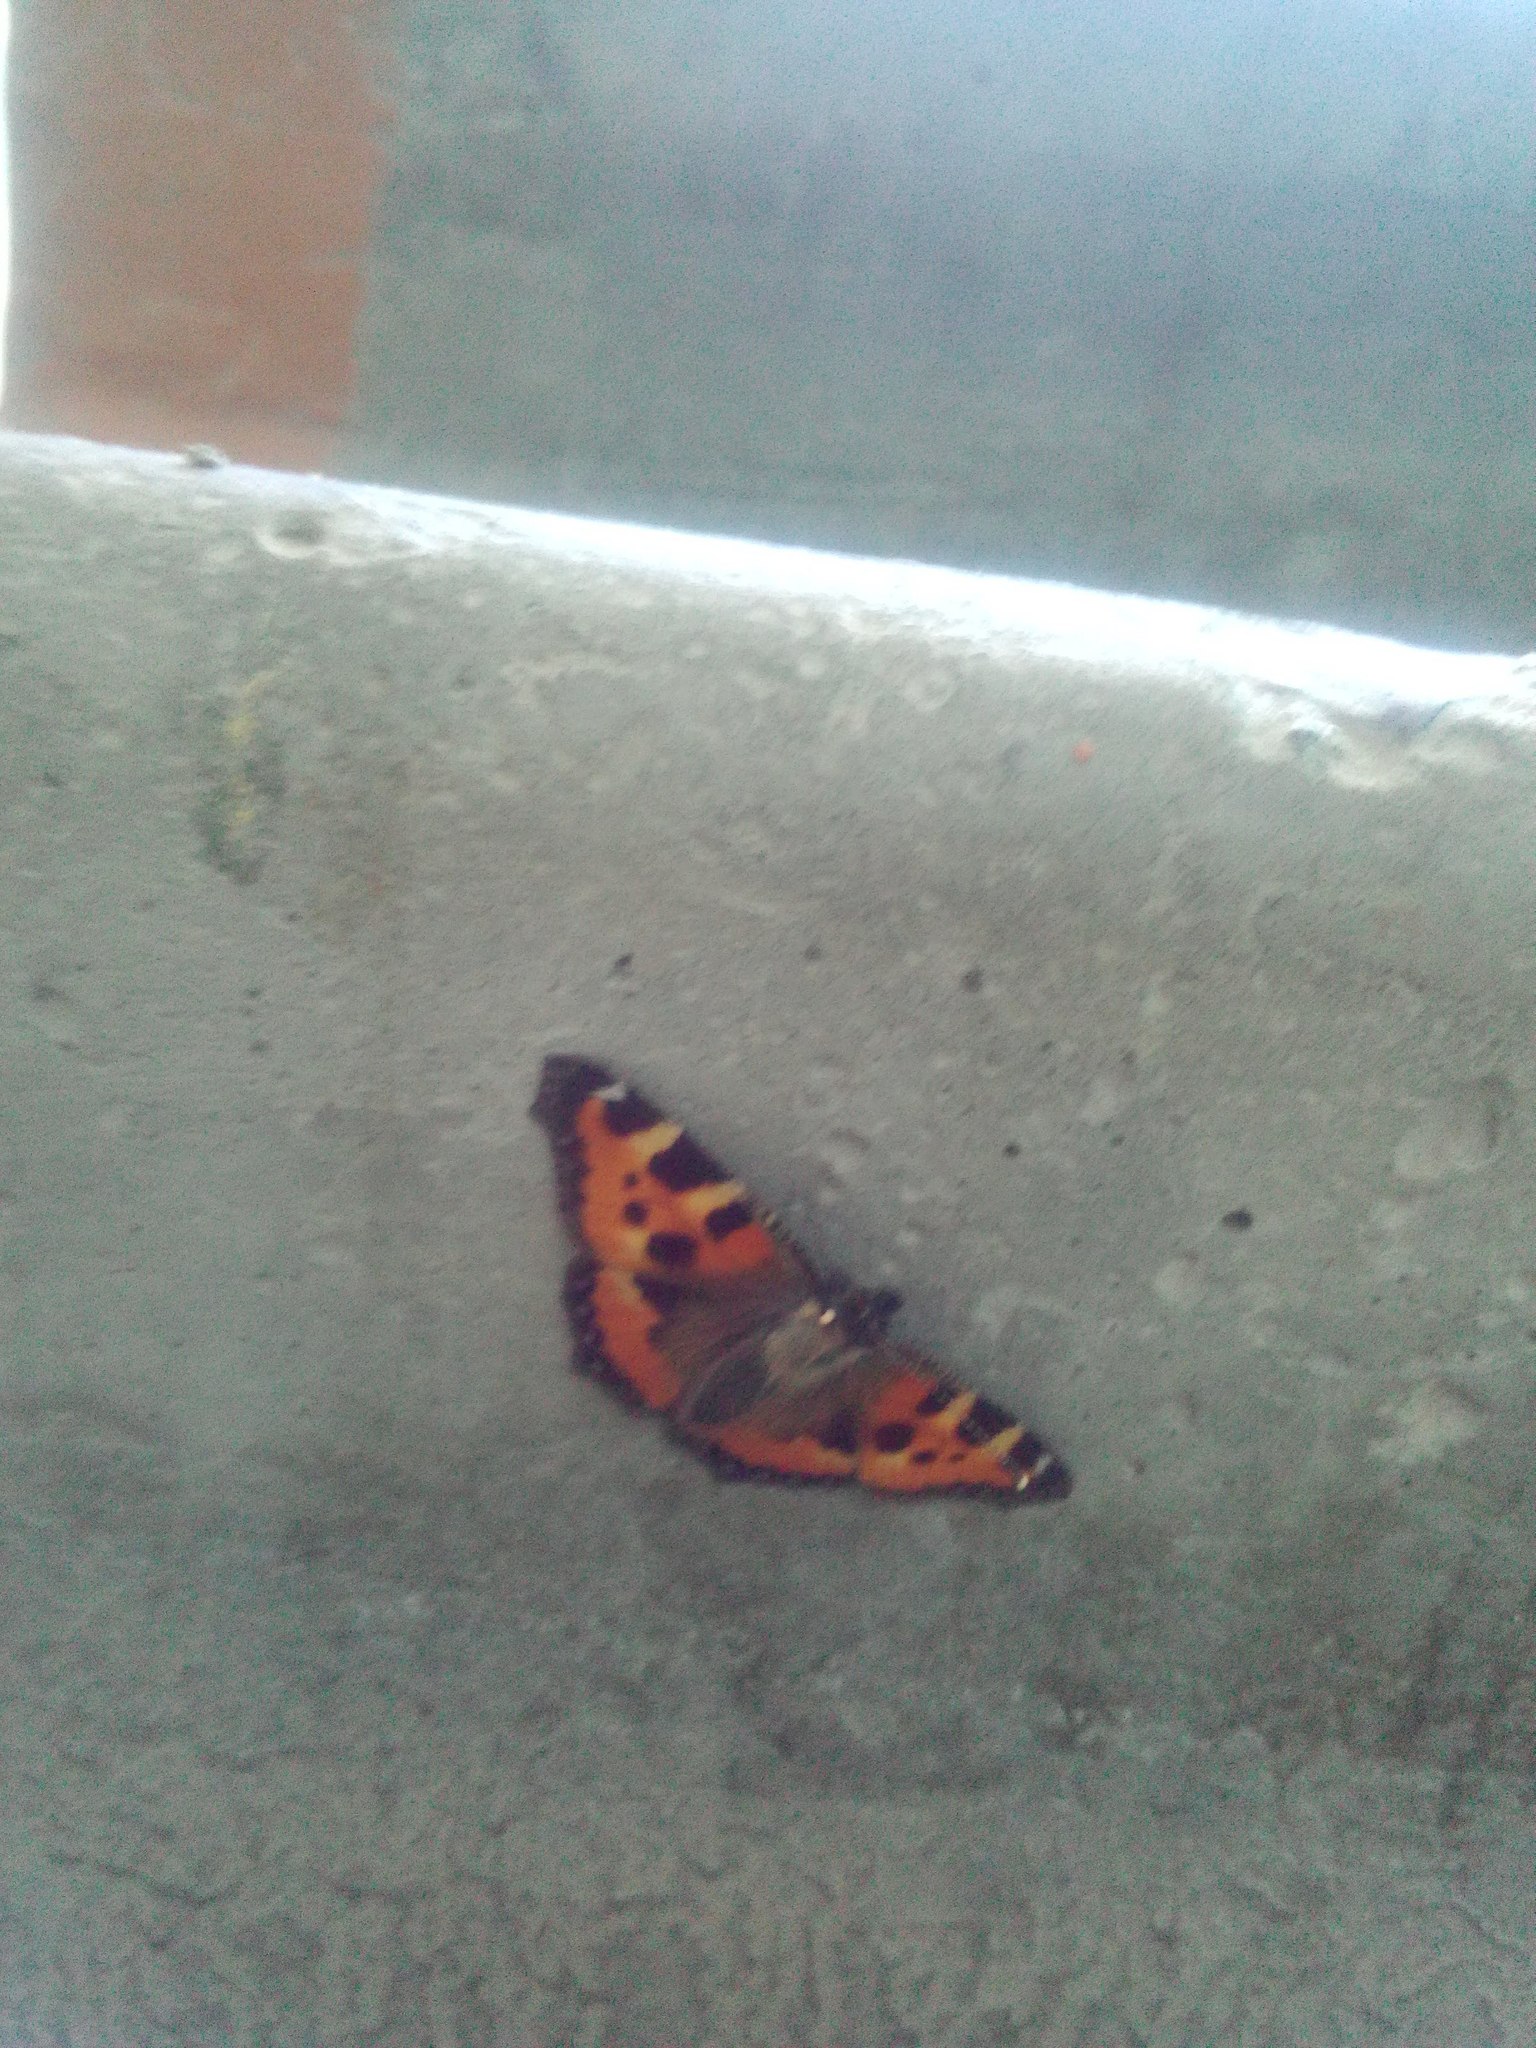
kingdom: Animalia
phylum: Arthropoda
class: Insecta
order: Lepidoptera
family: Nymphalidae
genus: Aglais
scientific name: Aglais urticae
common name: Small tortoiseshell
